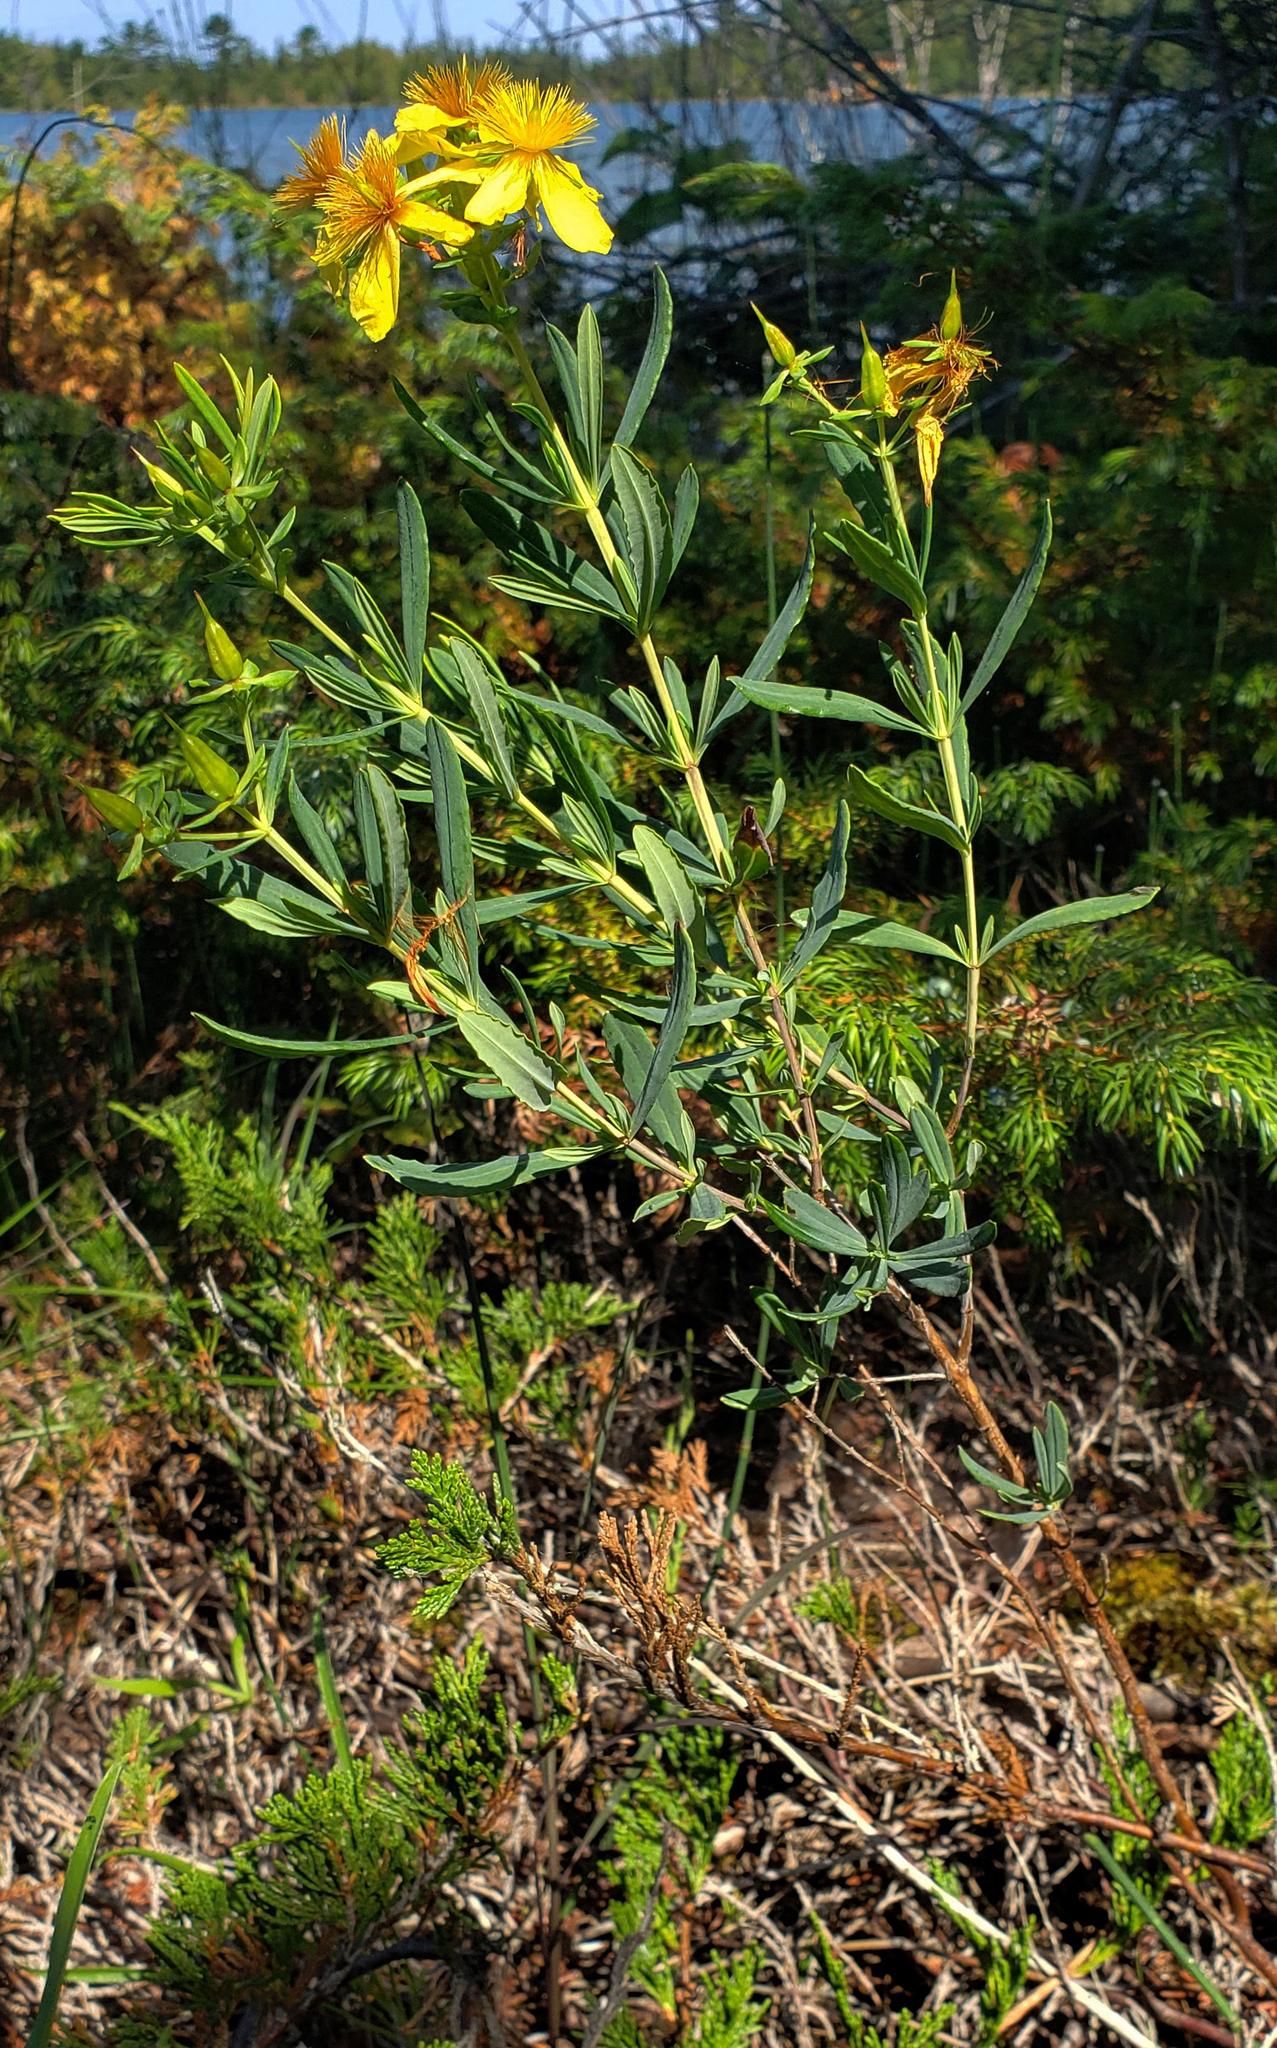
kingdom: Plantae
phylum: Tracheophyta
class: Magnoliopsida
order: Malpighiales
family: Hypericaceae
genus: Hypericum
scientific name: Hypericum kalmianum
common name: Kalm's st. john's-wort
